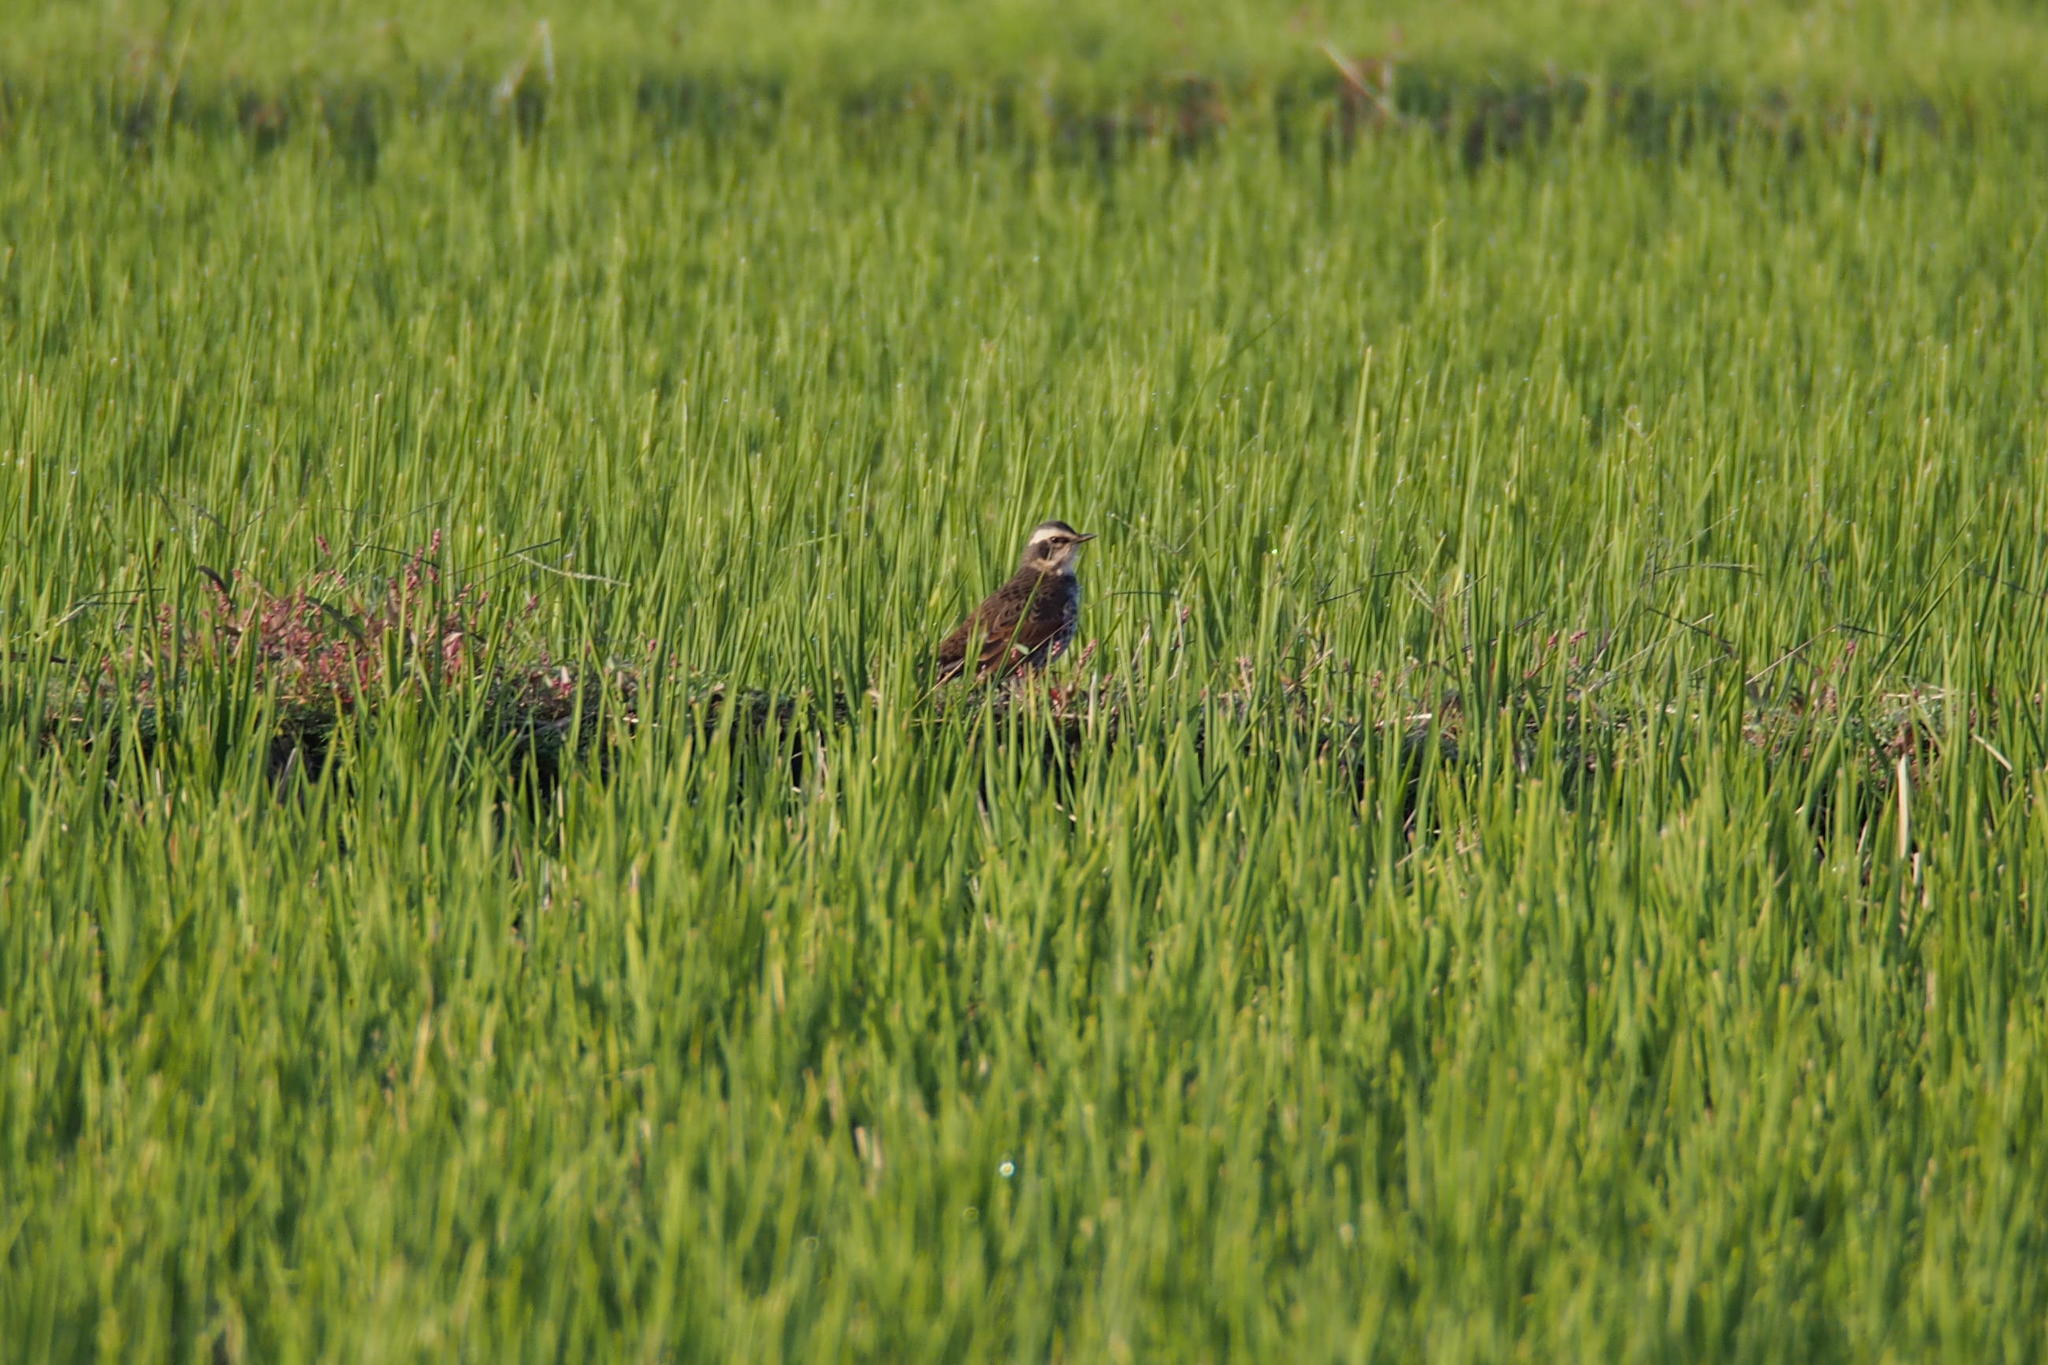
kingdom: Animalia
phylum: Chordata
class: Aves
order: Passeriformes
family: Turdidae
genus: Turdus
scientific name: Turdus eunomus
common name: Dusky thrush
